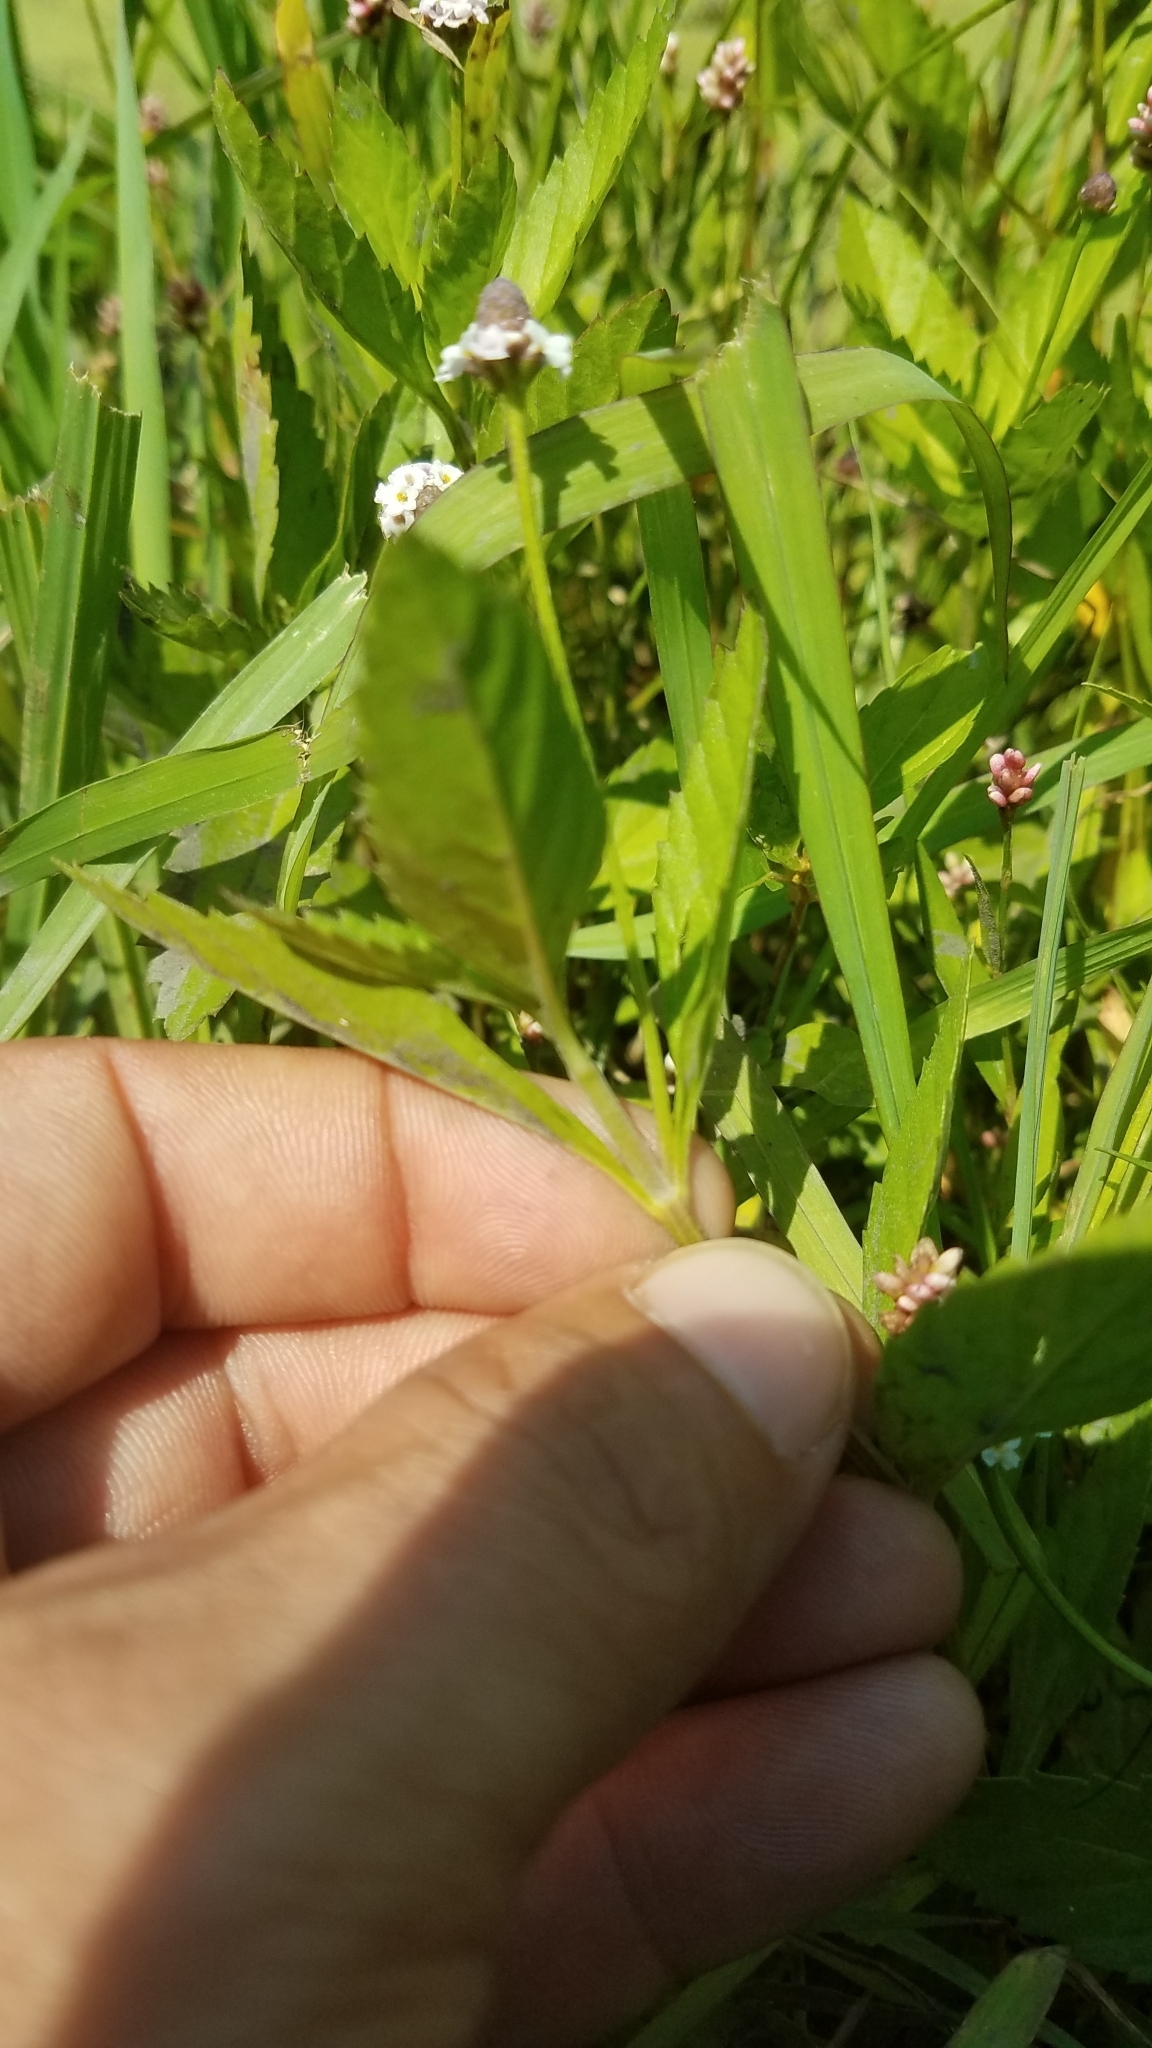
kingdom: Plantae
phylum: Tracheophyta
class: Magnoliopsida
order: Lamiales
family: Verbenaceae
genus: Phyla
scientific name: Phyla lanceolata
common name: Northern fogfruit
